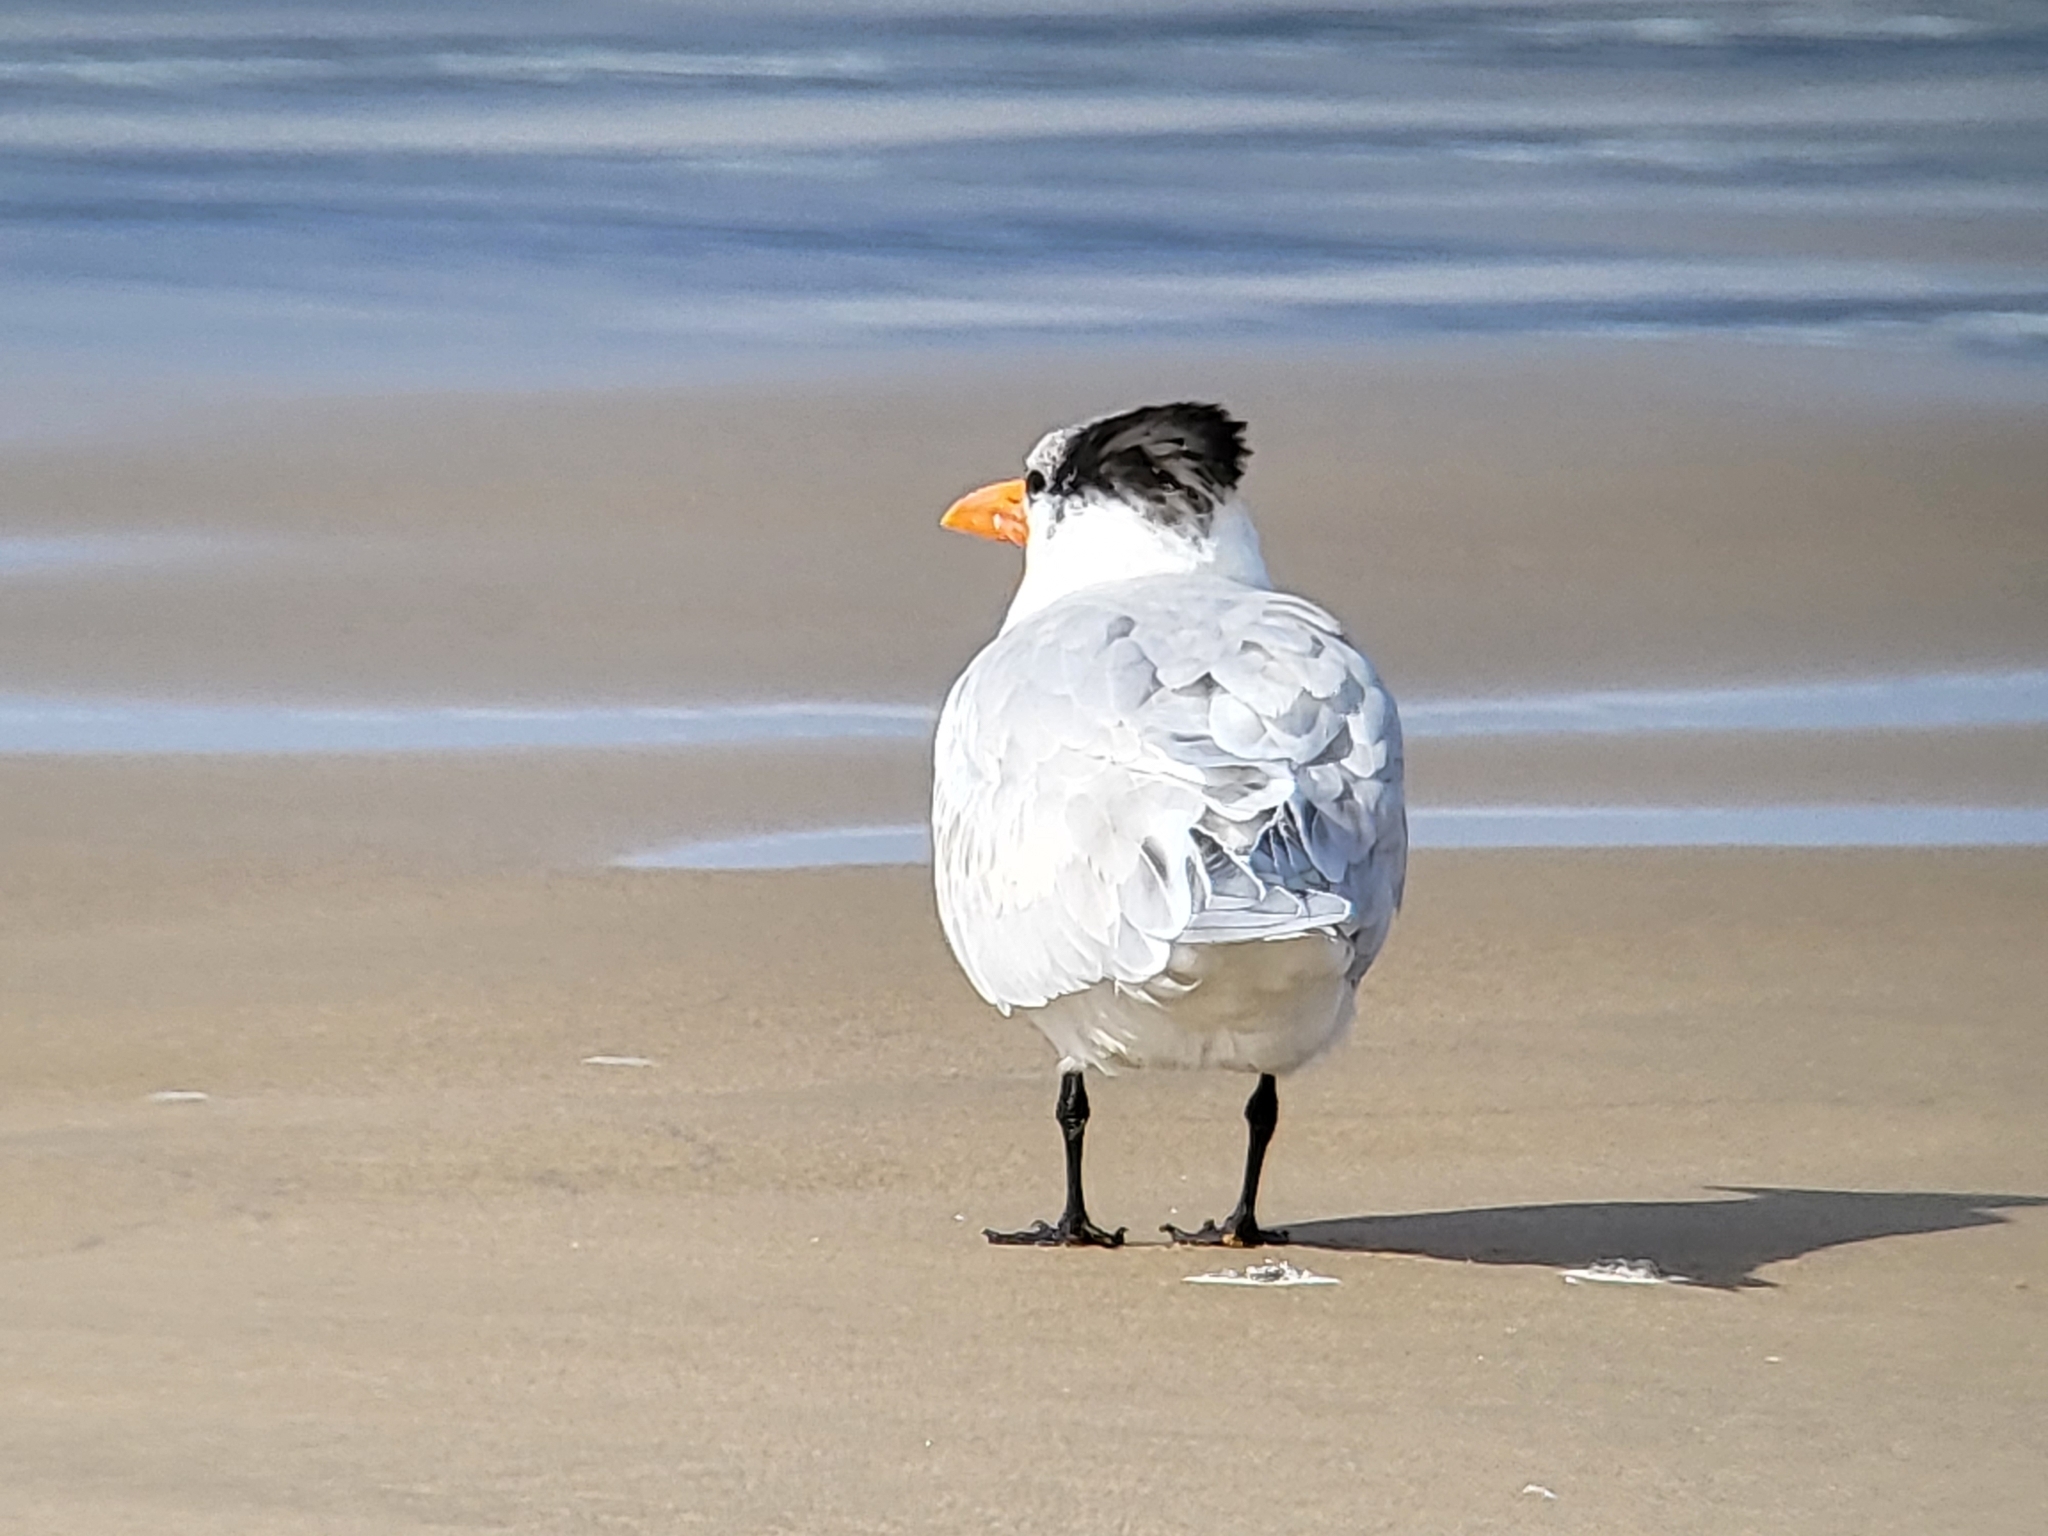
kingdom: Animalia
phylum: Chordata
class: Aves
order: Charadriiformes
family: Laridae
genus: Thalasseus
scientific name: Thalasseus maximus
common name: Royal tern
